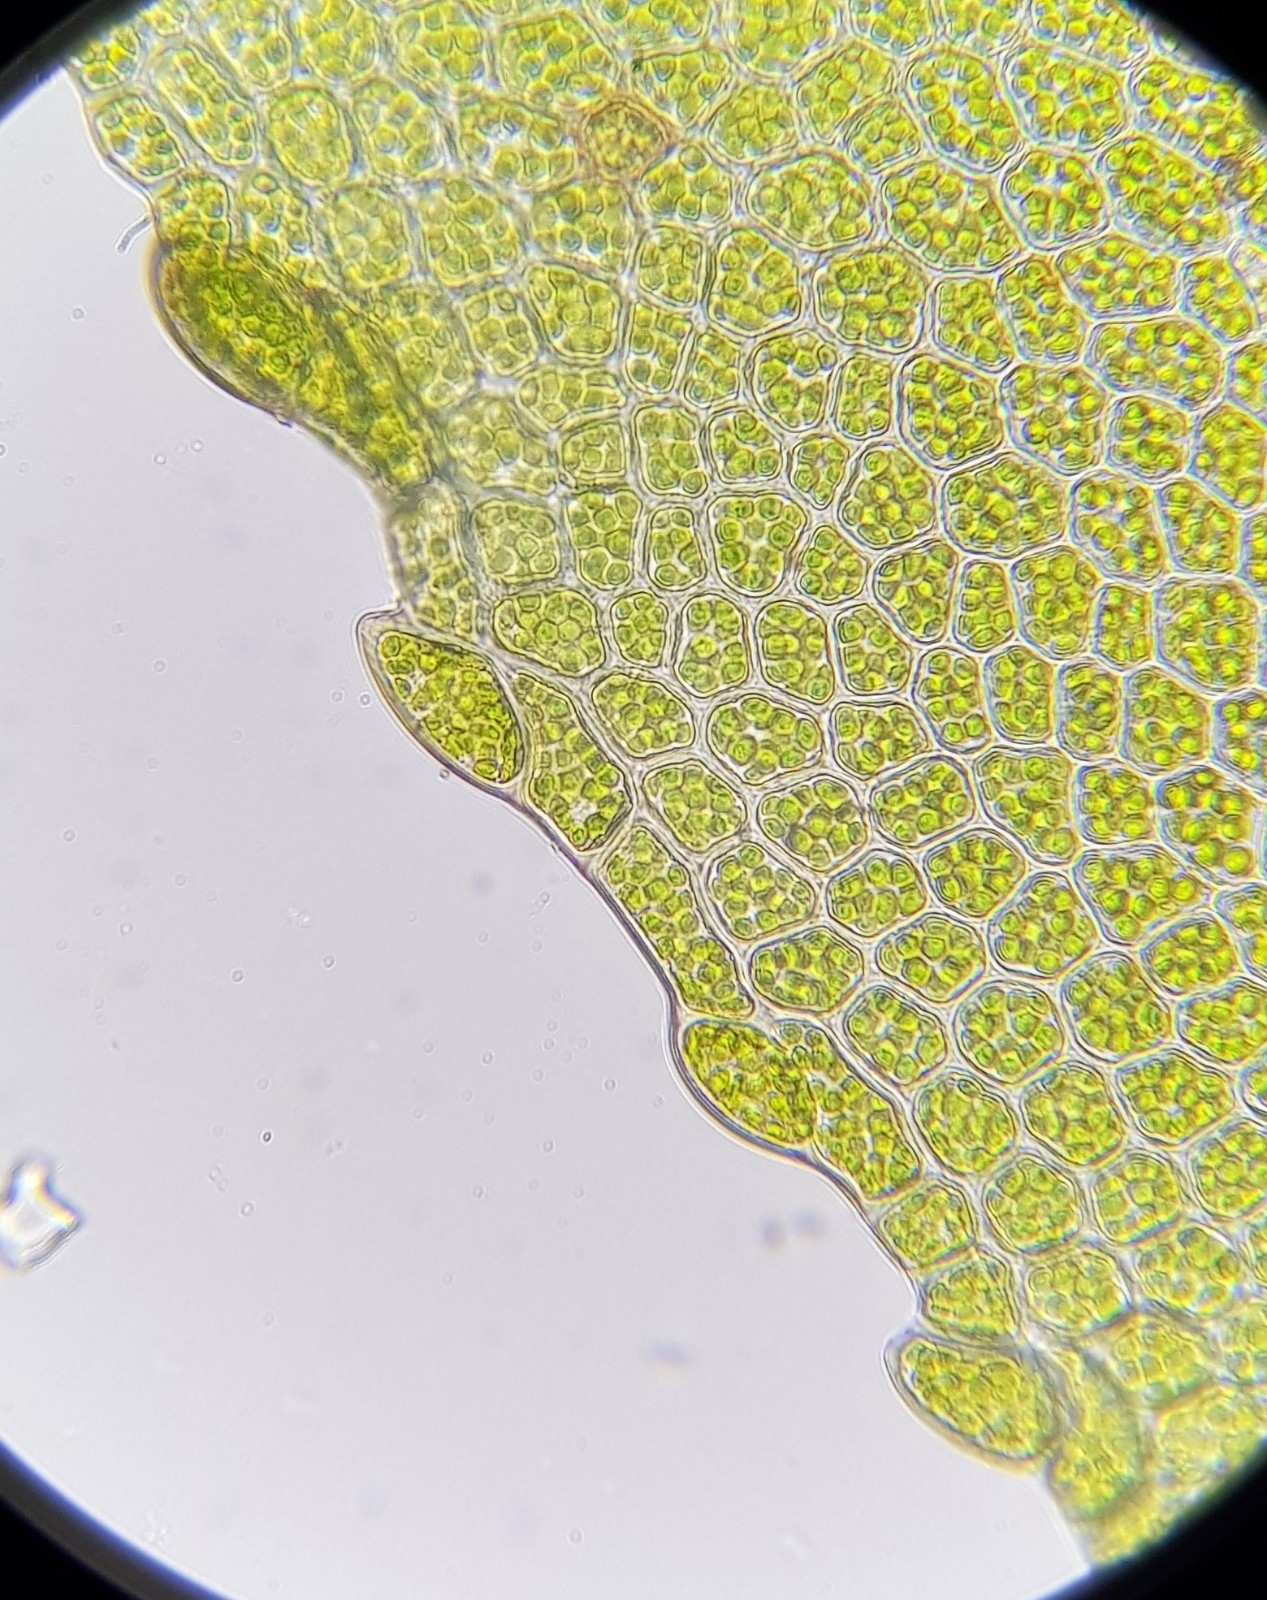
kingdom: Plantae
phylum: Bryophyta
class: Bryopsida
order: Bryales
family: Mniaceae
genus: Mnium
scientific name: Mnium stellare
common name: Star leafy moss
